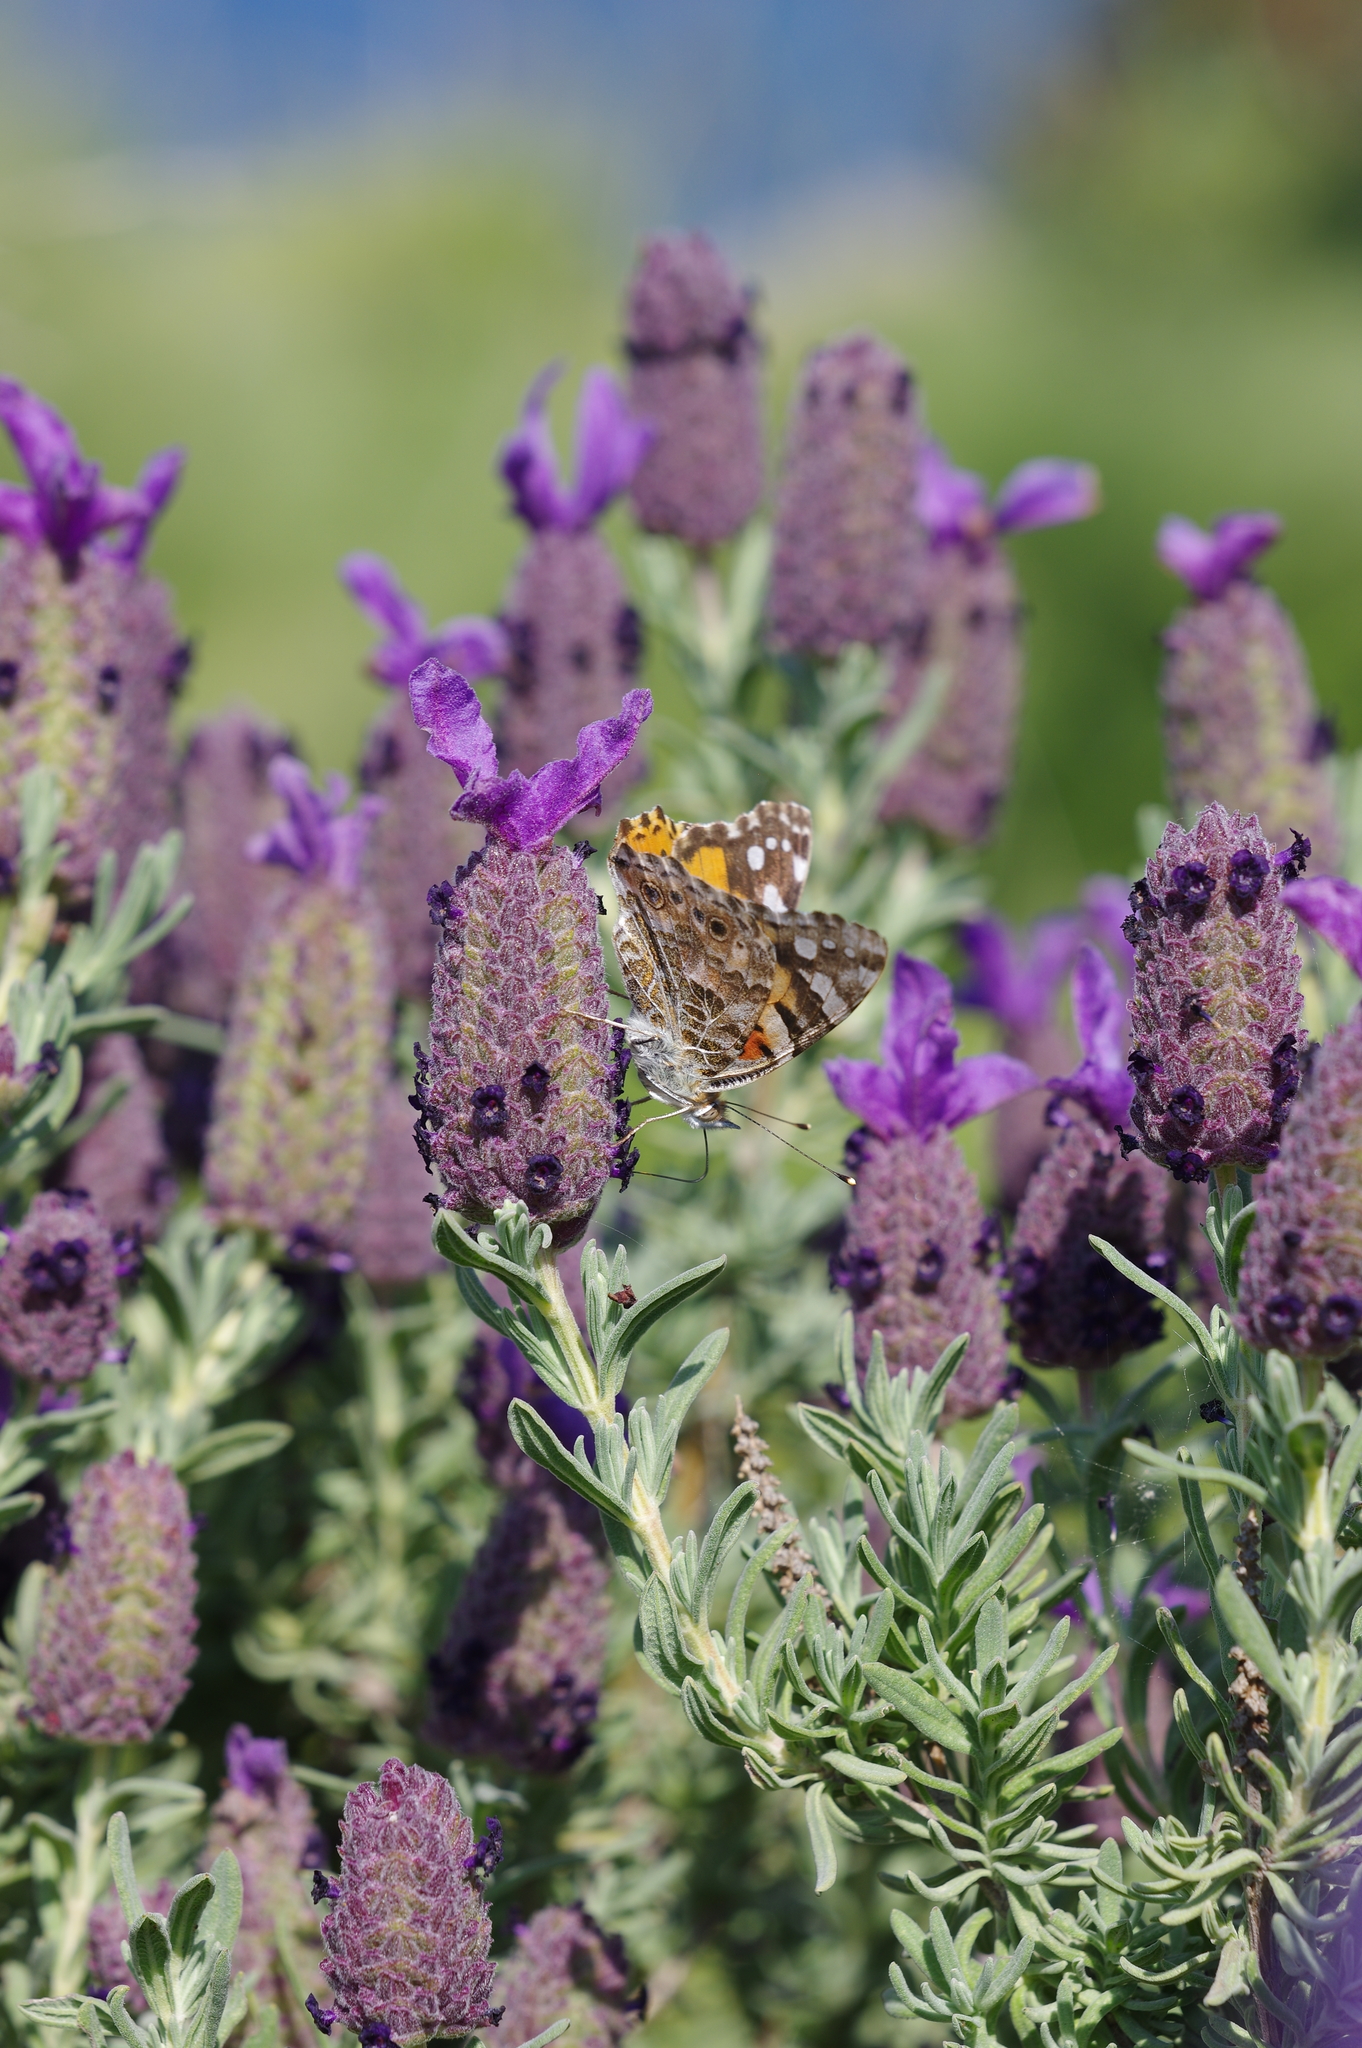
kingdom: Animalia
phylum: Arthropoda
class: Insecta
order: Lepidoptera
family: Nymphalidae
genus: Vanessa
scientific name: Vanessa cardui
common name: Painted lady
